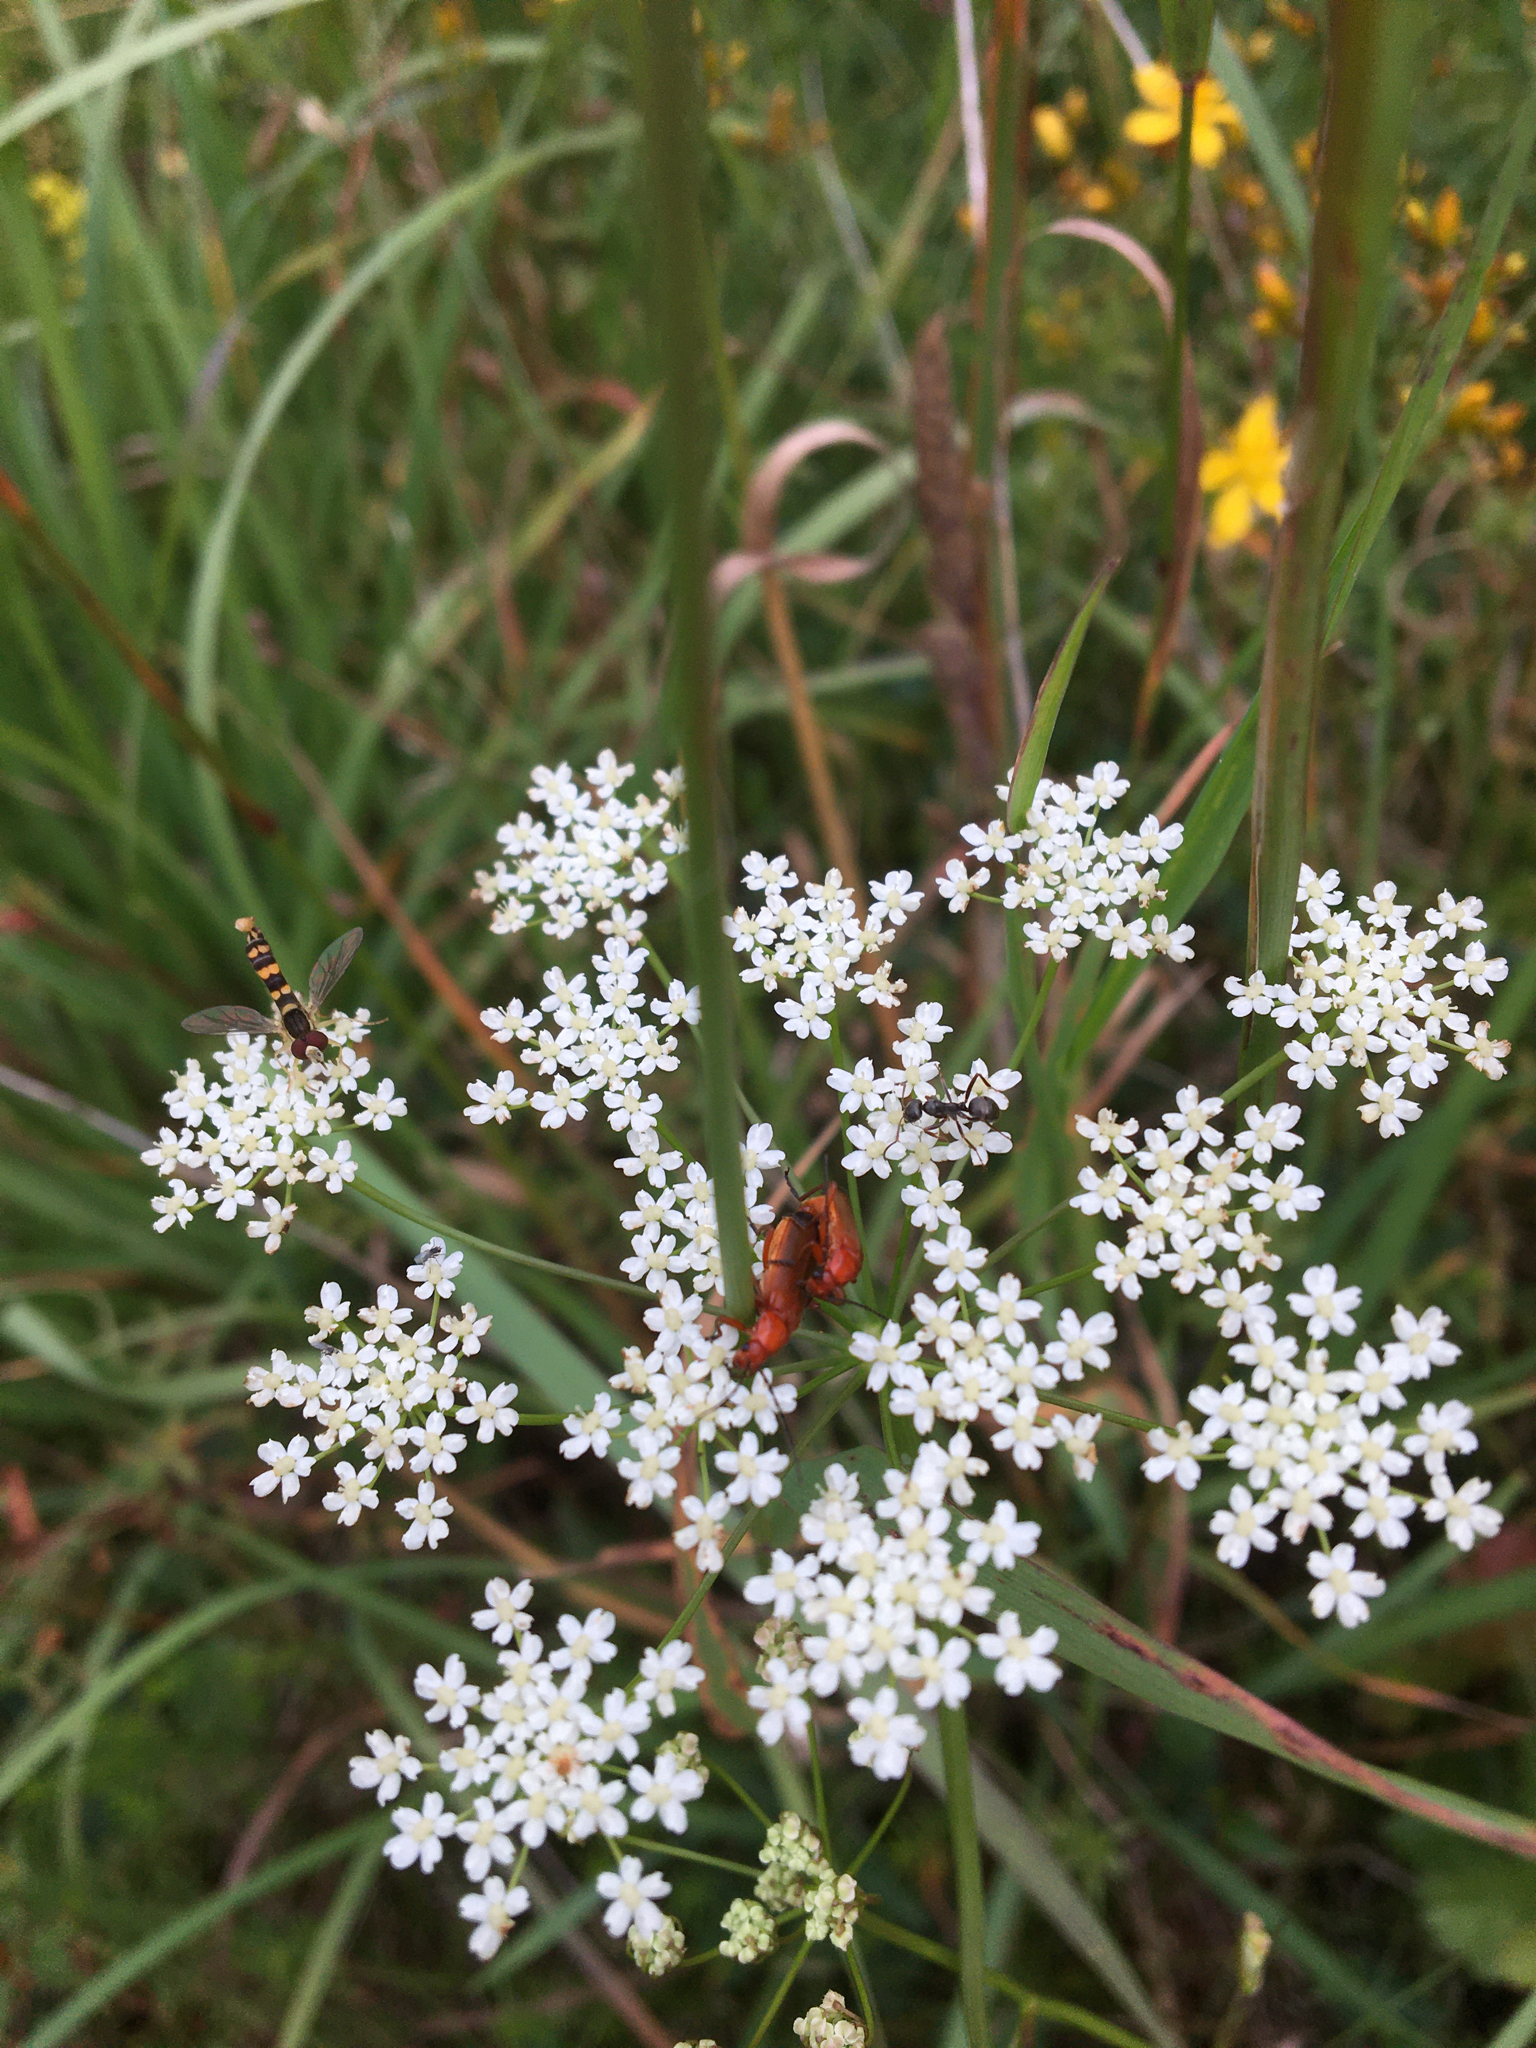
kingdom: Animalia
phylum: Arthropoda
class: Insecta
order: Coleoptera
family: Cantharidae
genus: Rhagonycha
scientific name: Rhagonycha fulva
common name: Common red soldier beetle
